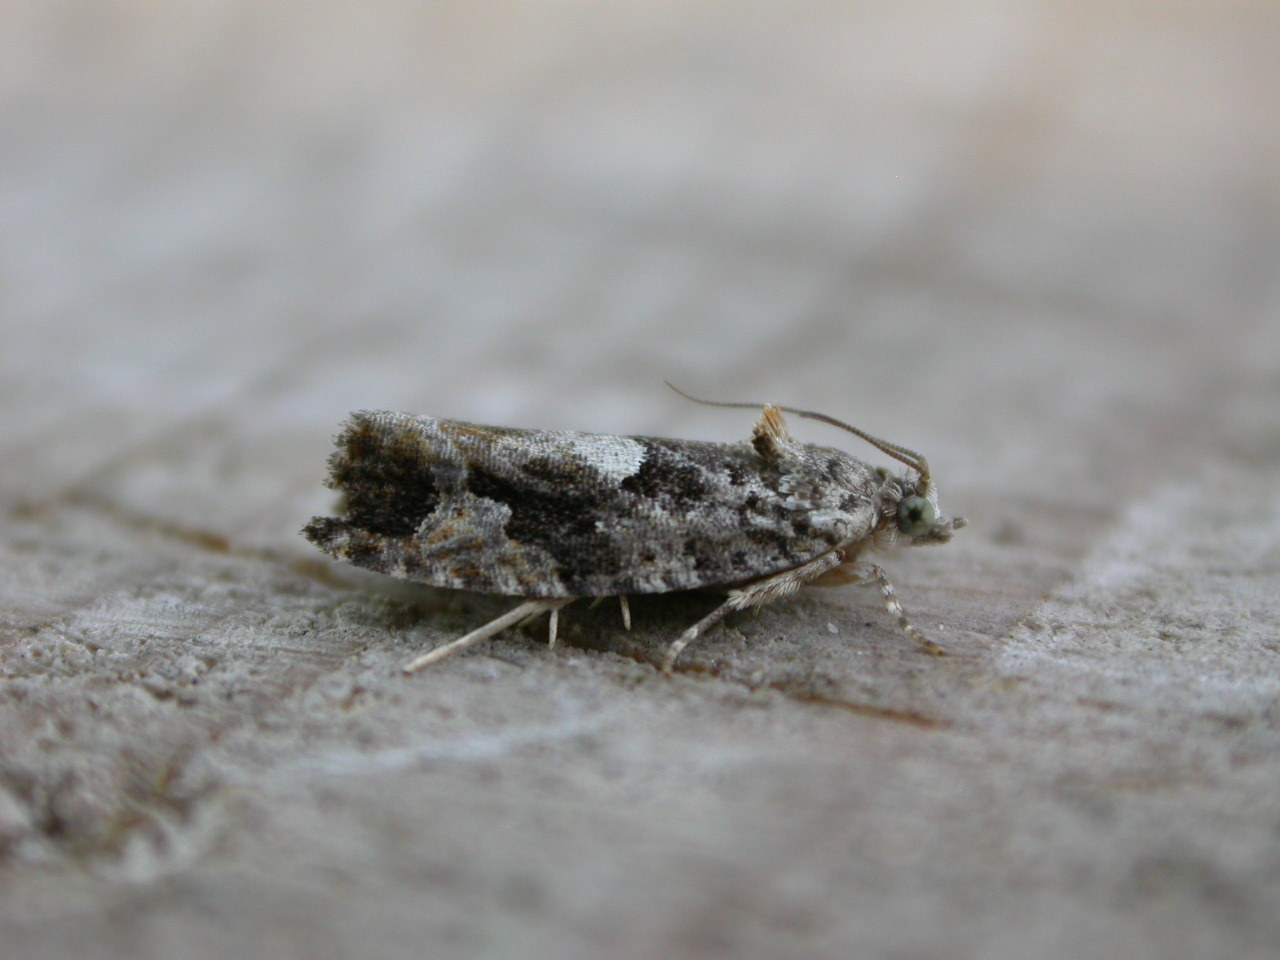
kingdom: Animalia
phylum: Arthropoda
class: Insecta
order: Lepidoptera
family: Tortricidae
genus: Eudemis
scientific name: Eudemis profundana
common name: Diamond-back marble
